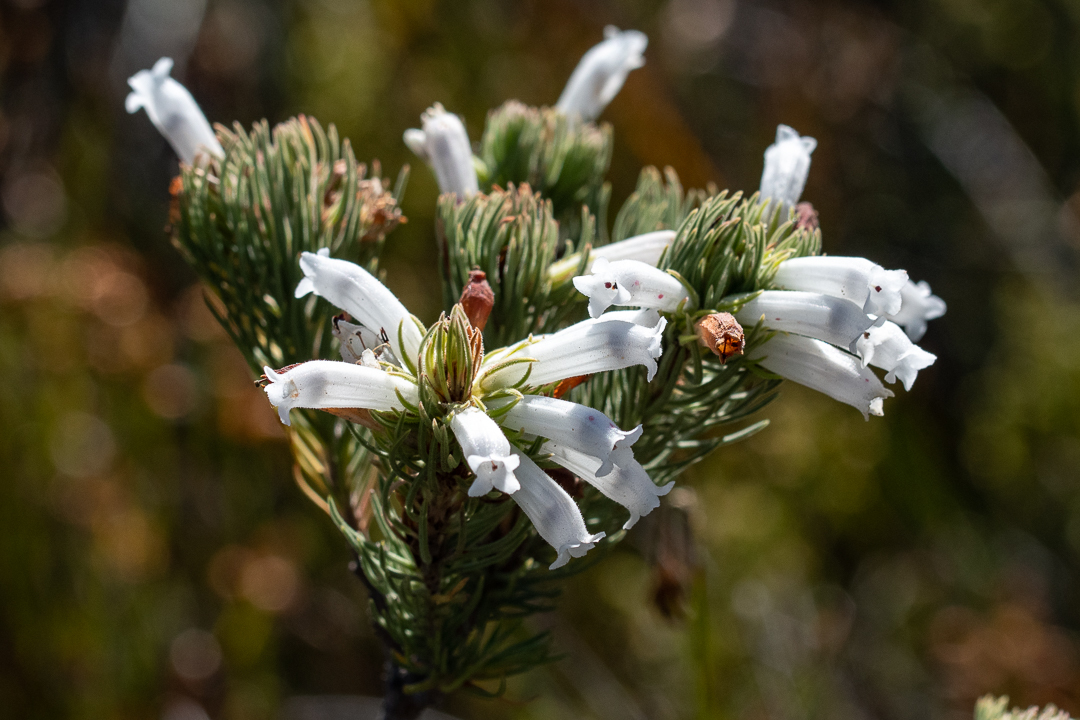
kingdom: Plantae
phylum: Tracheophyta
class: Magnoliopsida
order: Ericales
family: Ericaceae
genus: Erica
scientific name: Erica viscaria
